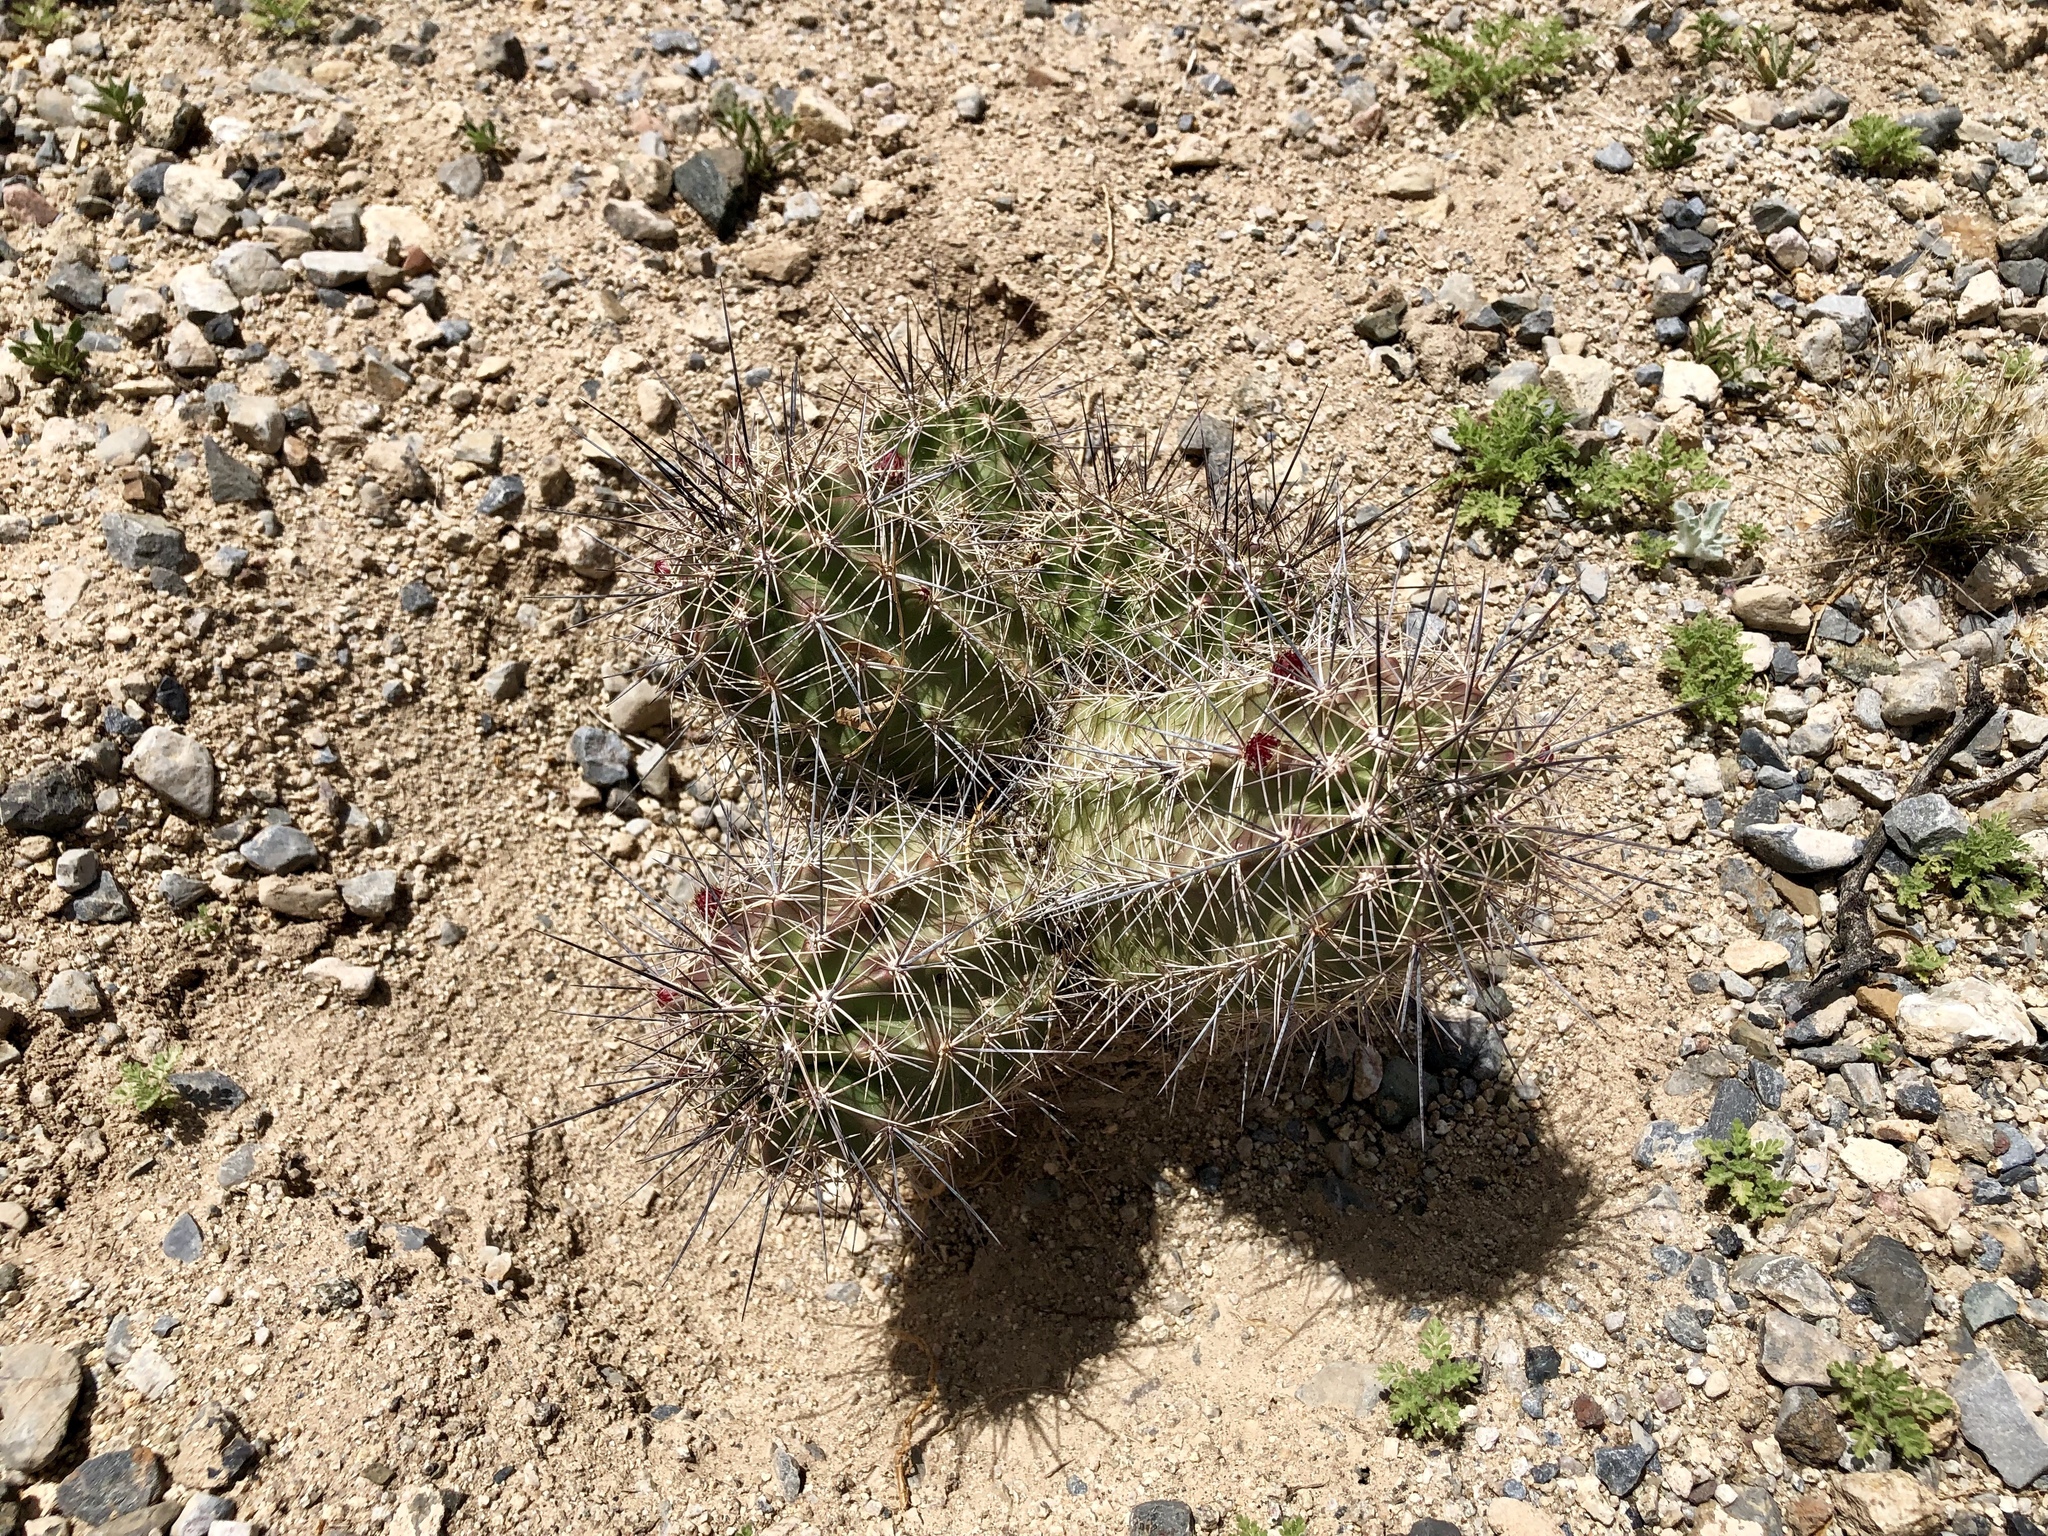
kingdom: Plantae
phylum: Tracheophyta
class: Magnoliopsida
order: Caryophyllales
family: Cactaceae
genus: Echinocereus
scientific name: Echinocereus coccineus
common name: Scarlet hedgehog cactus
